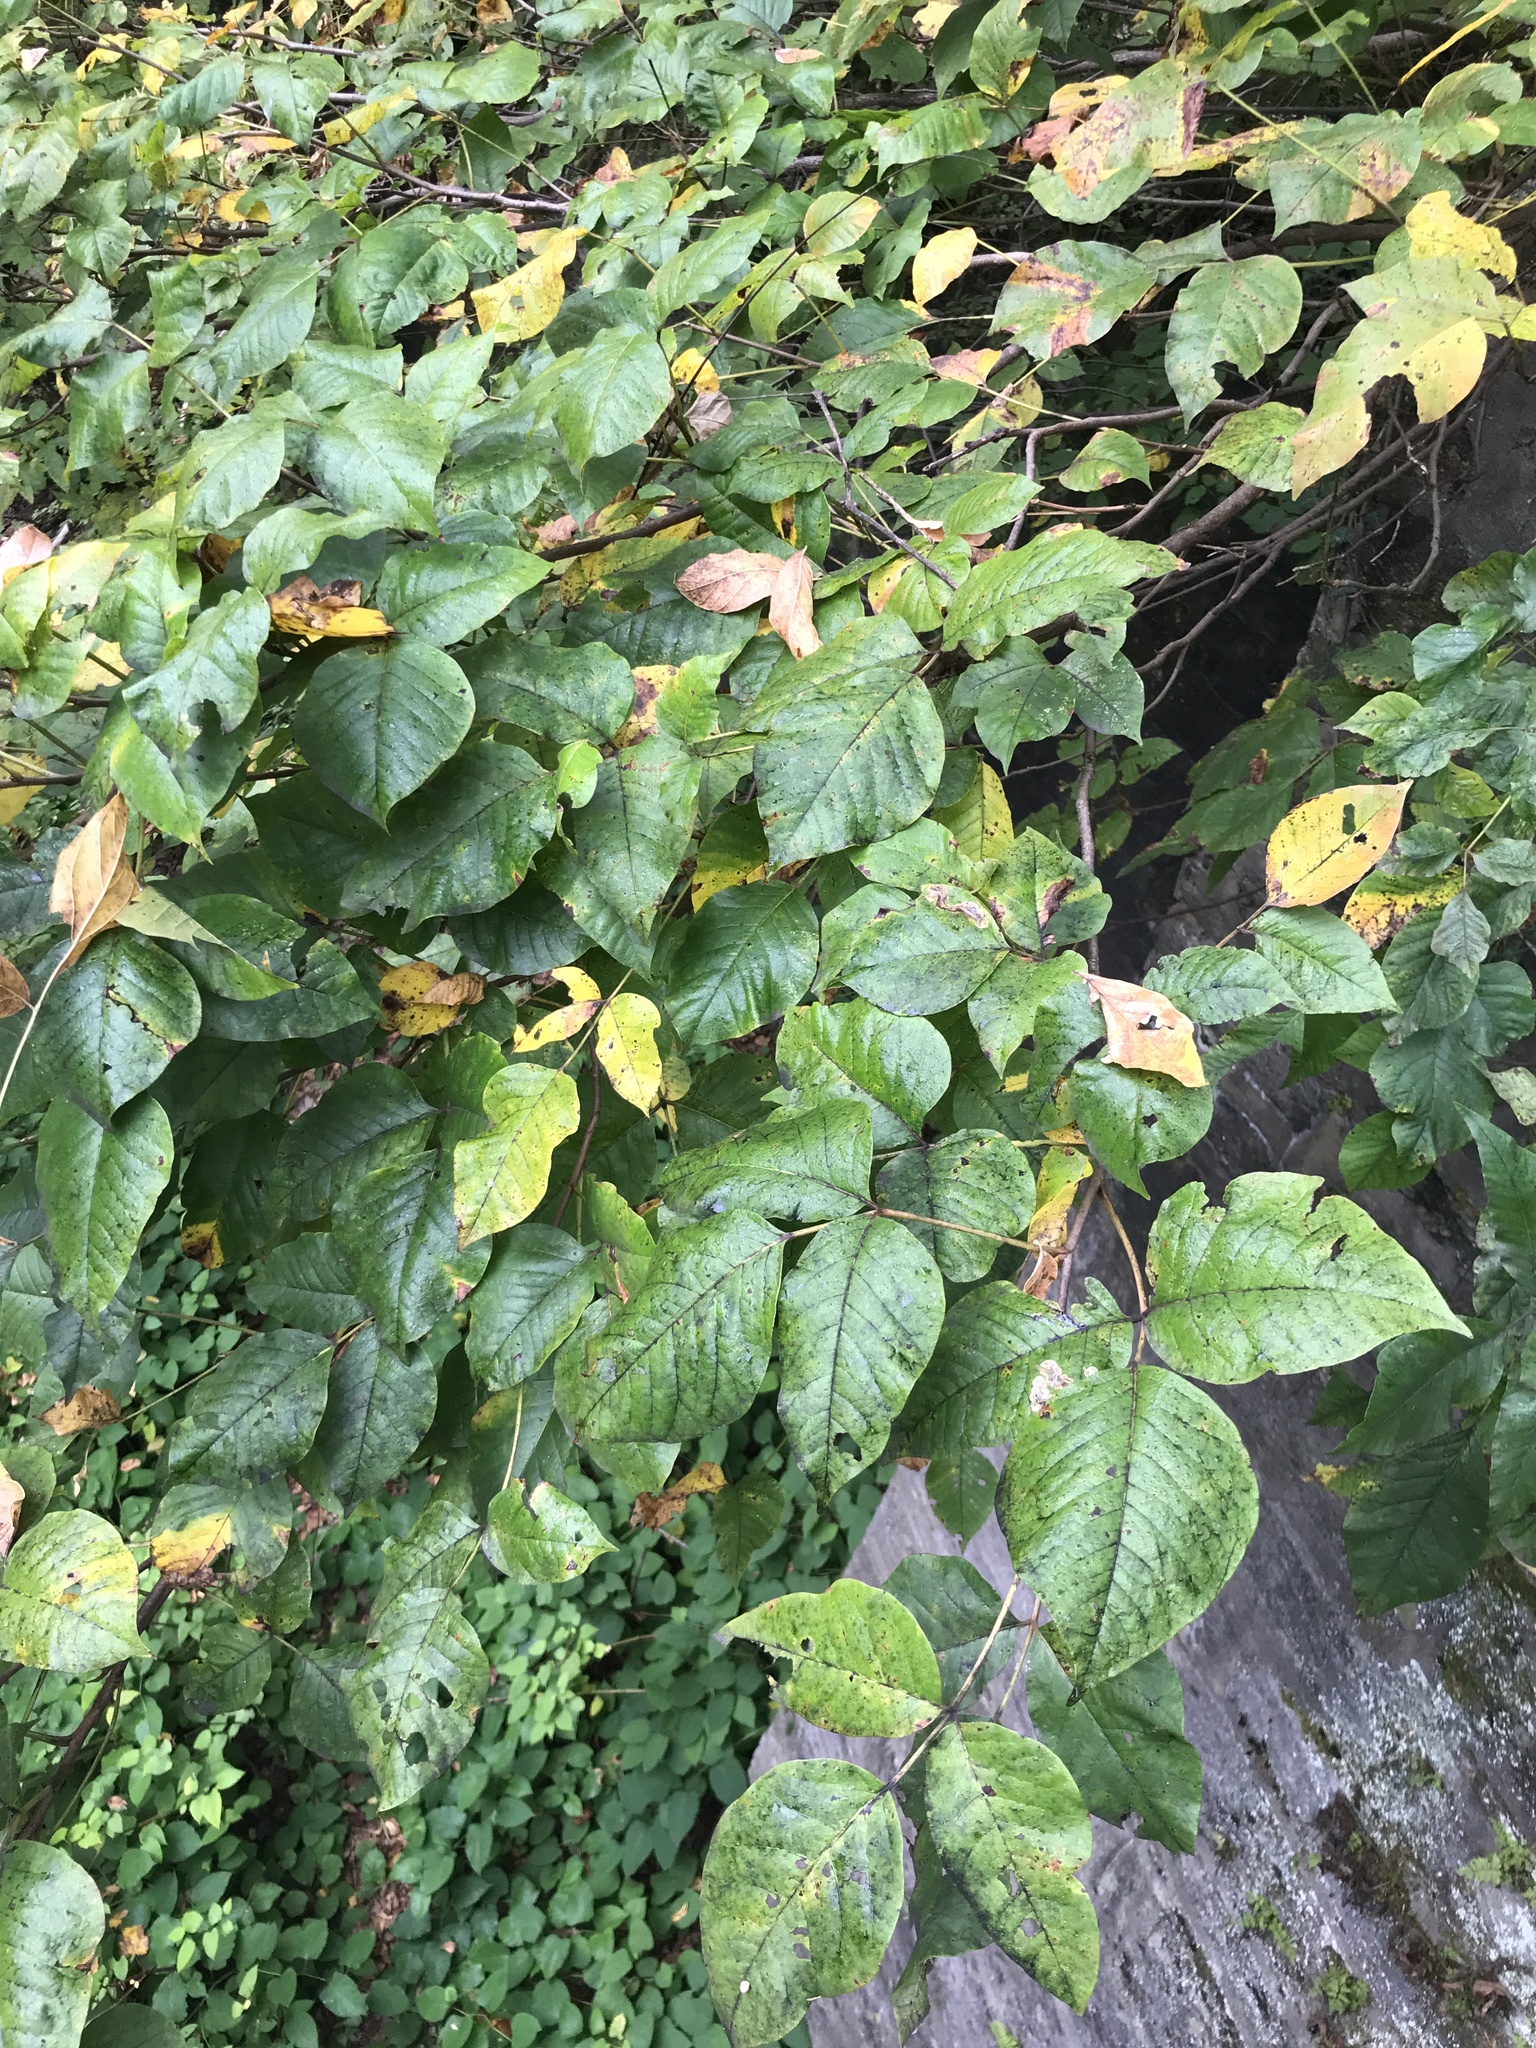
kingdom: Plantae
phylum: Tracheophyta
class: Magnoliopsida
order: Sapindales
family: Anacardiaceae
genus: Toxicodendron
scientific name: Toxicodendron radicans
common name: Poison ivy
